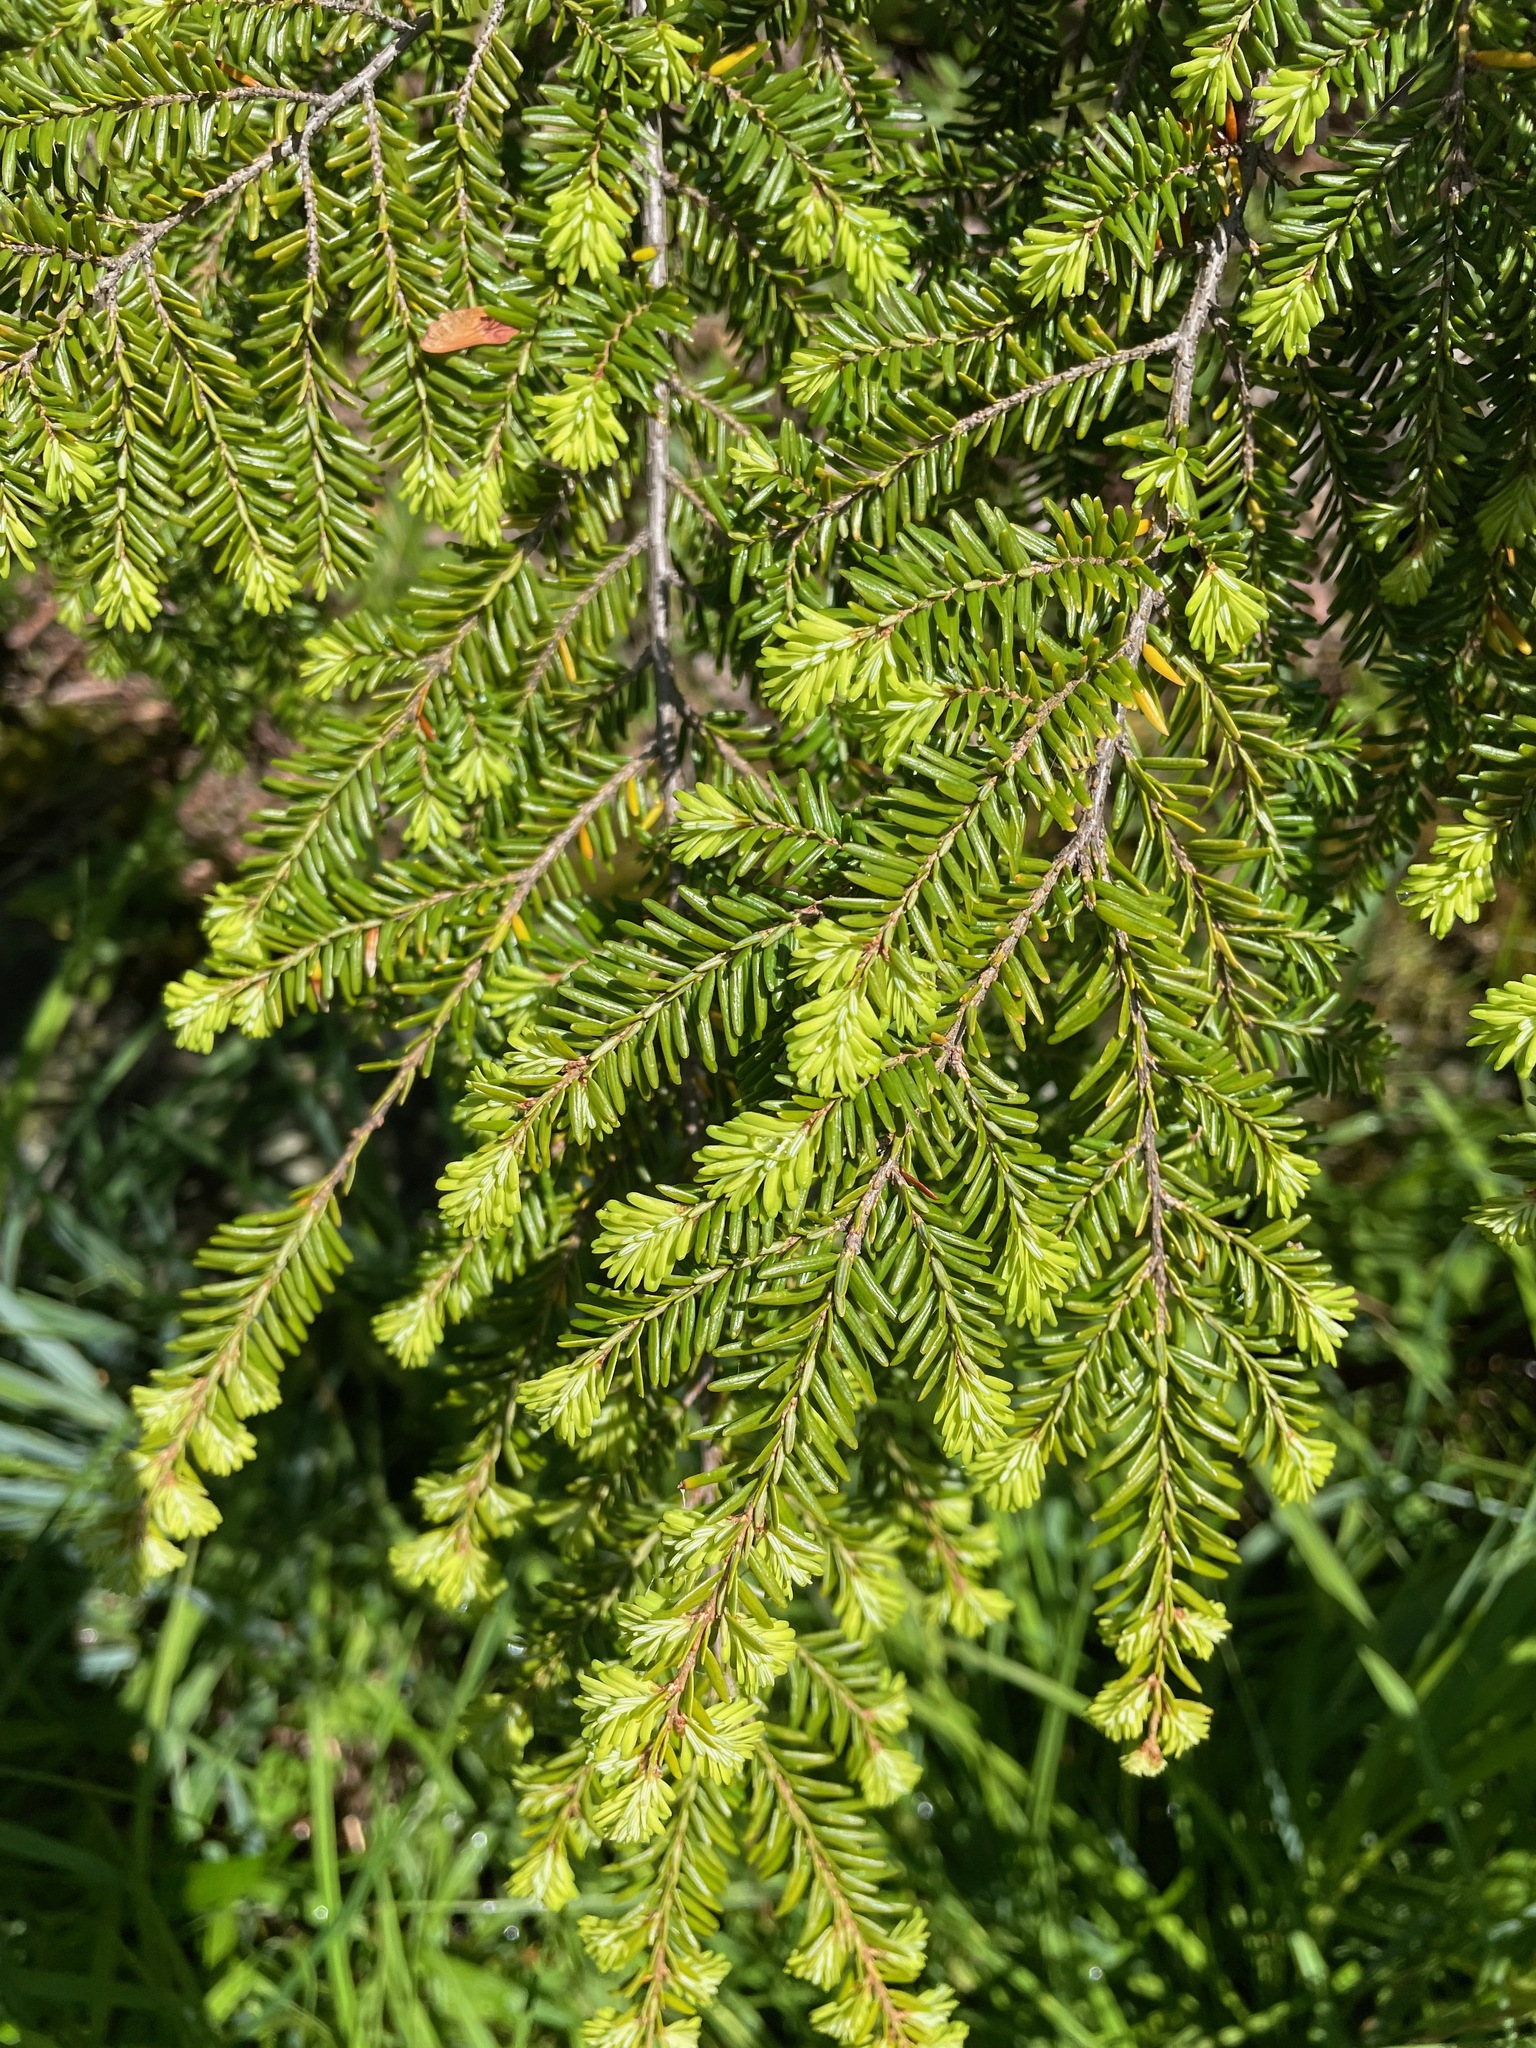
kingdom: Plantae
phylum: Tracheophyta
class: Pinopsida
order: Pinales
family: Pinaceae
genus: Tsuga
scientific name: Tsuga canadensis
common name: Eastern hemlock
